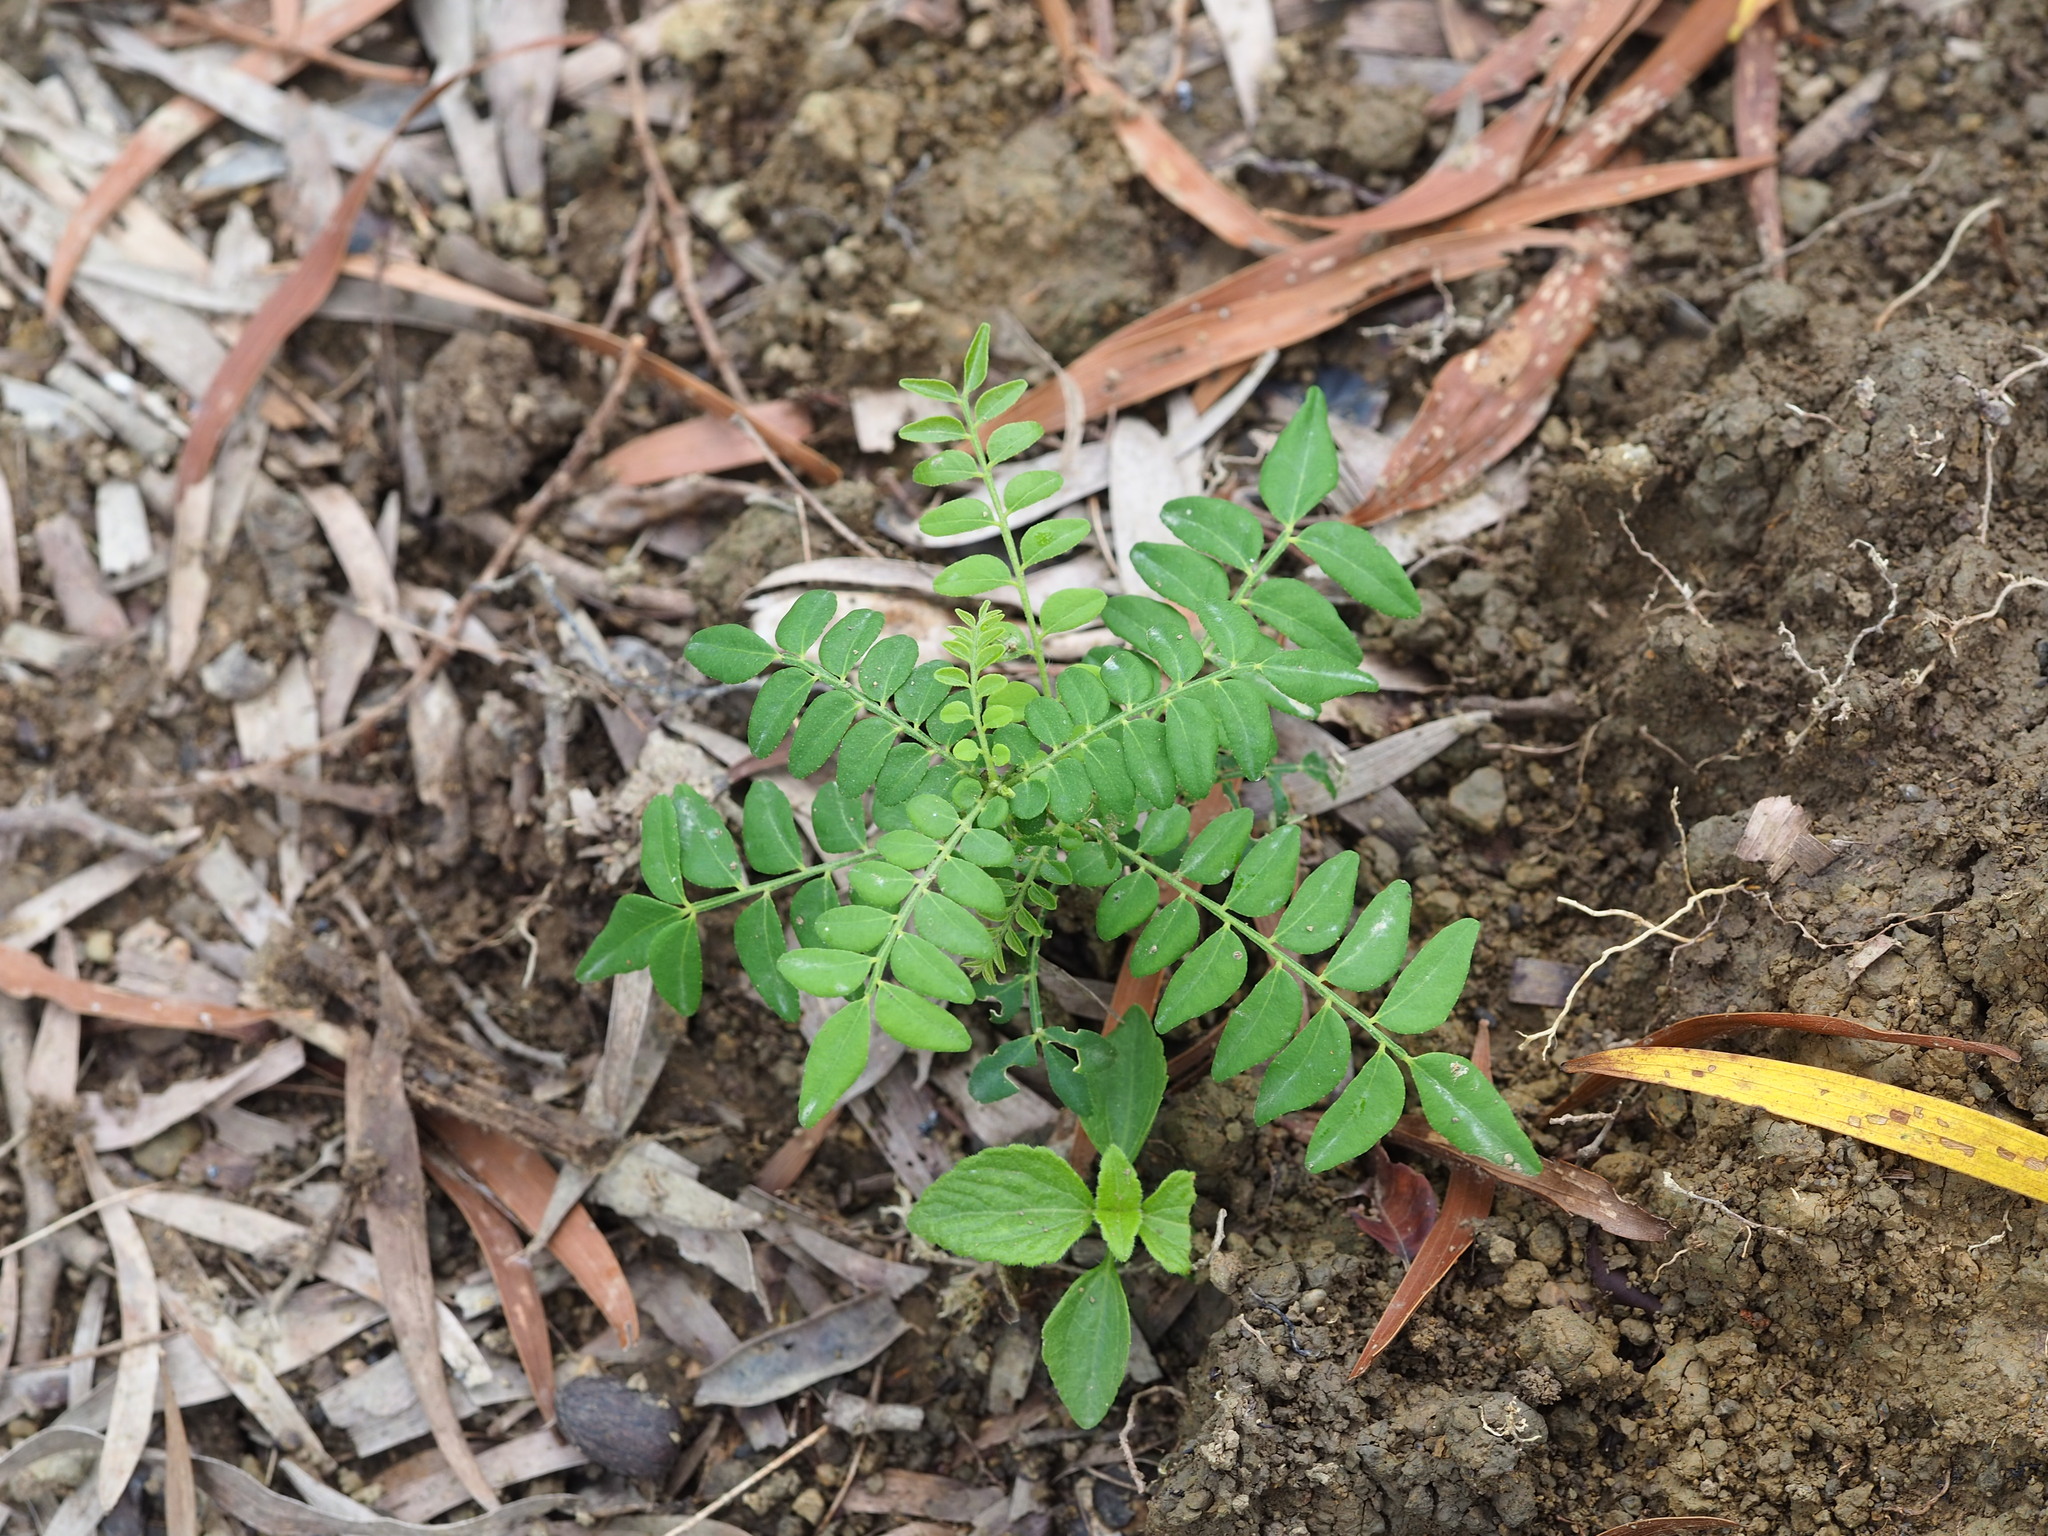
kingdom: Plantae
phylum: Tracheophyta
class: Magnoliopsida
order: Sapindales
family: Rutaceae
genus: Clausena
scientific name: Clausena excavata
